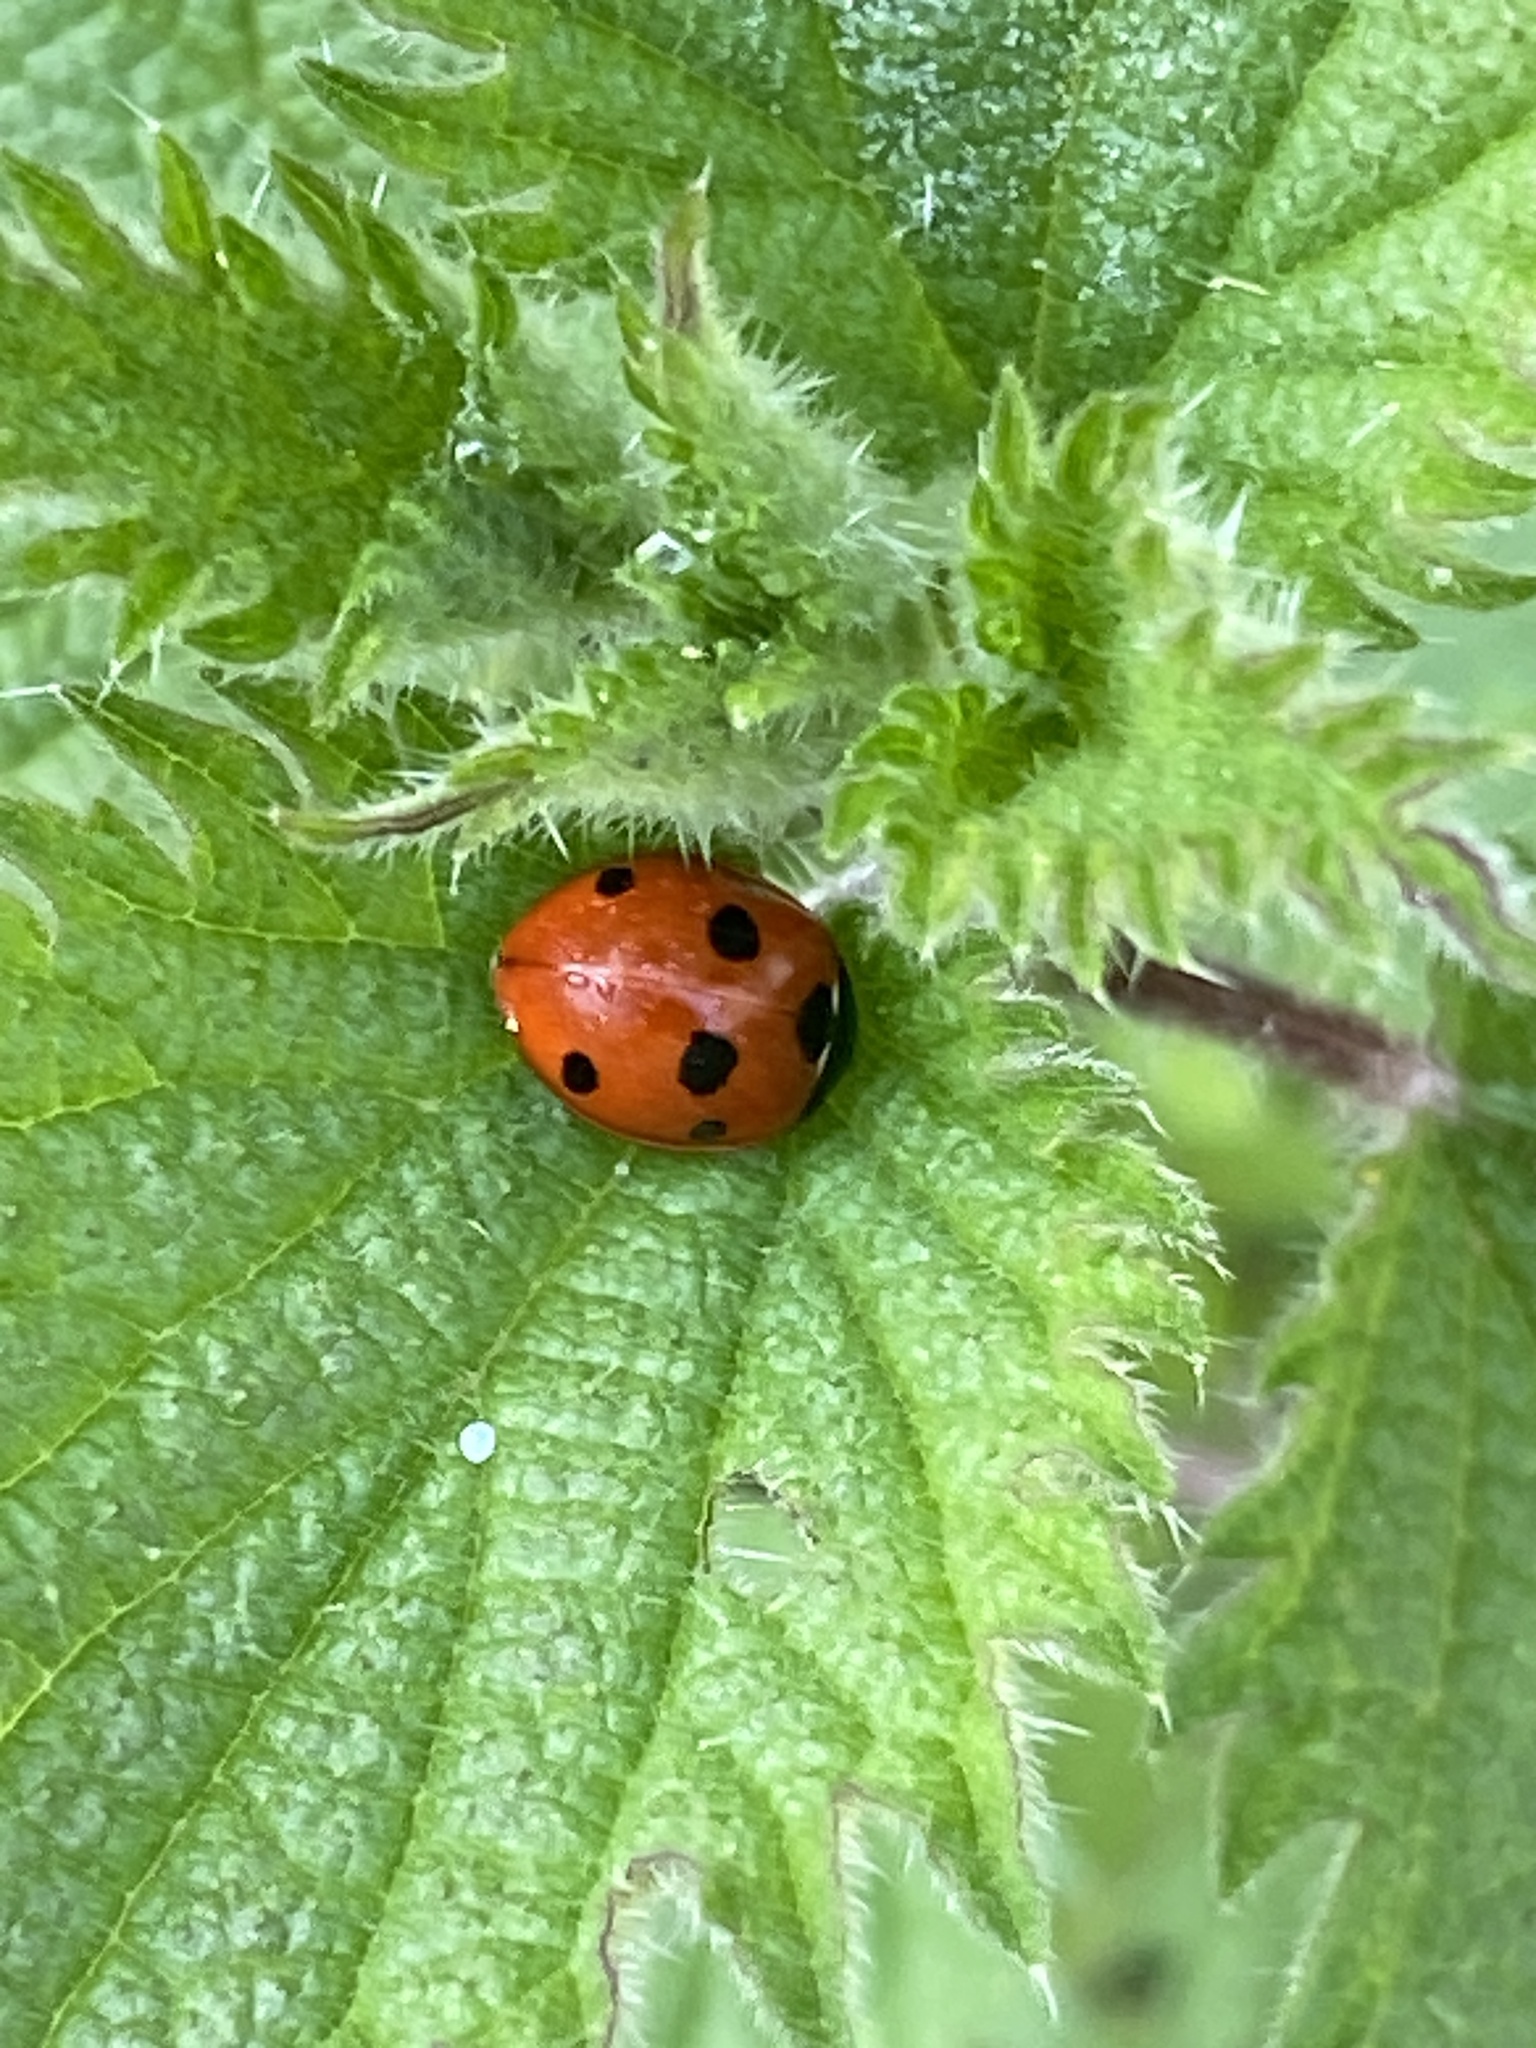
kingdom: Animalia
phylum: Arthropoda
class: Insecta
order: Coleoptera
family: Coccinellidae
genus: Coccinella
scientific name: Coccinella septempunctata
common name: Sevenspotted lady beetle
